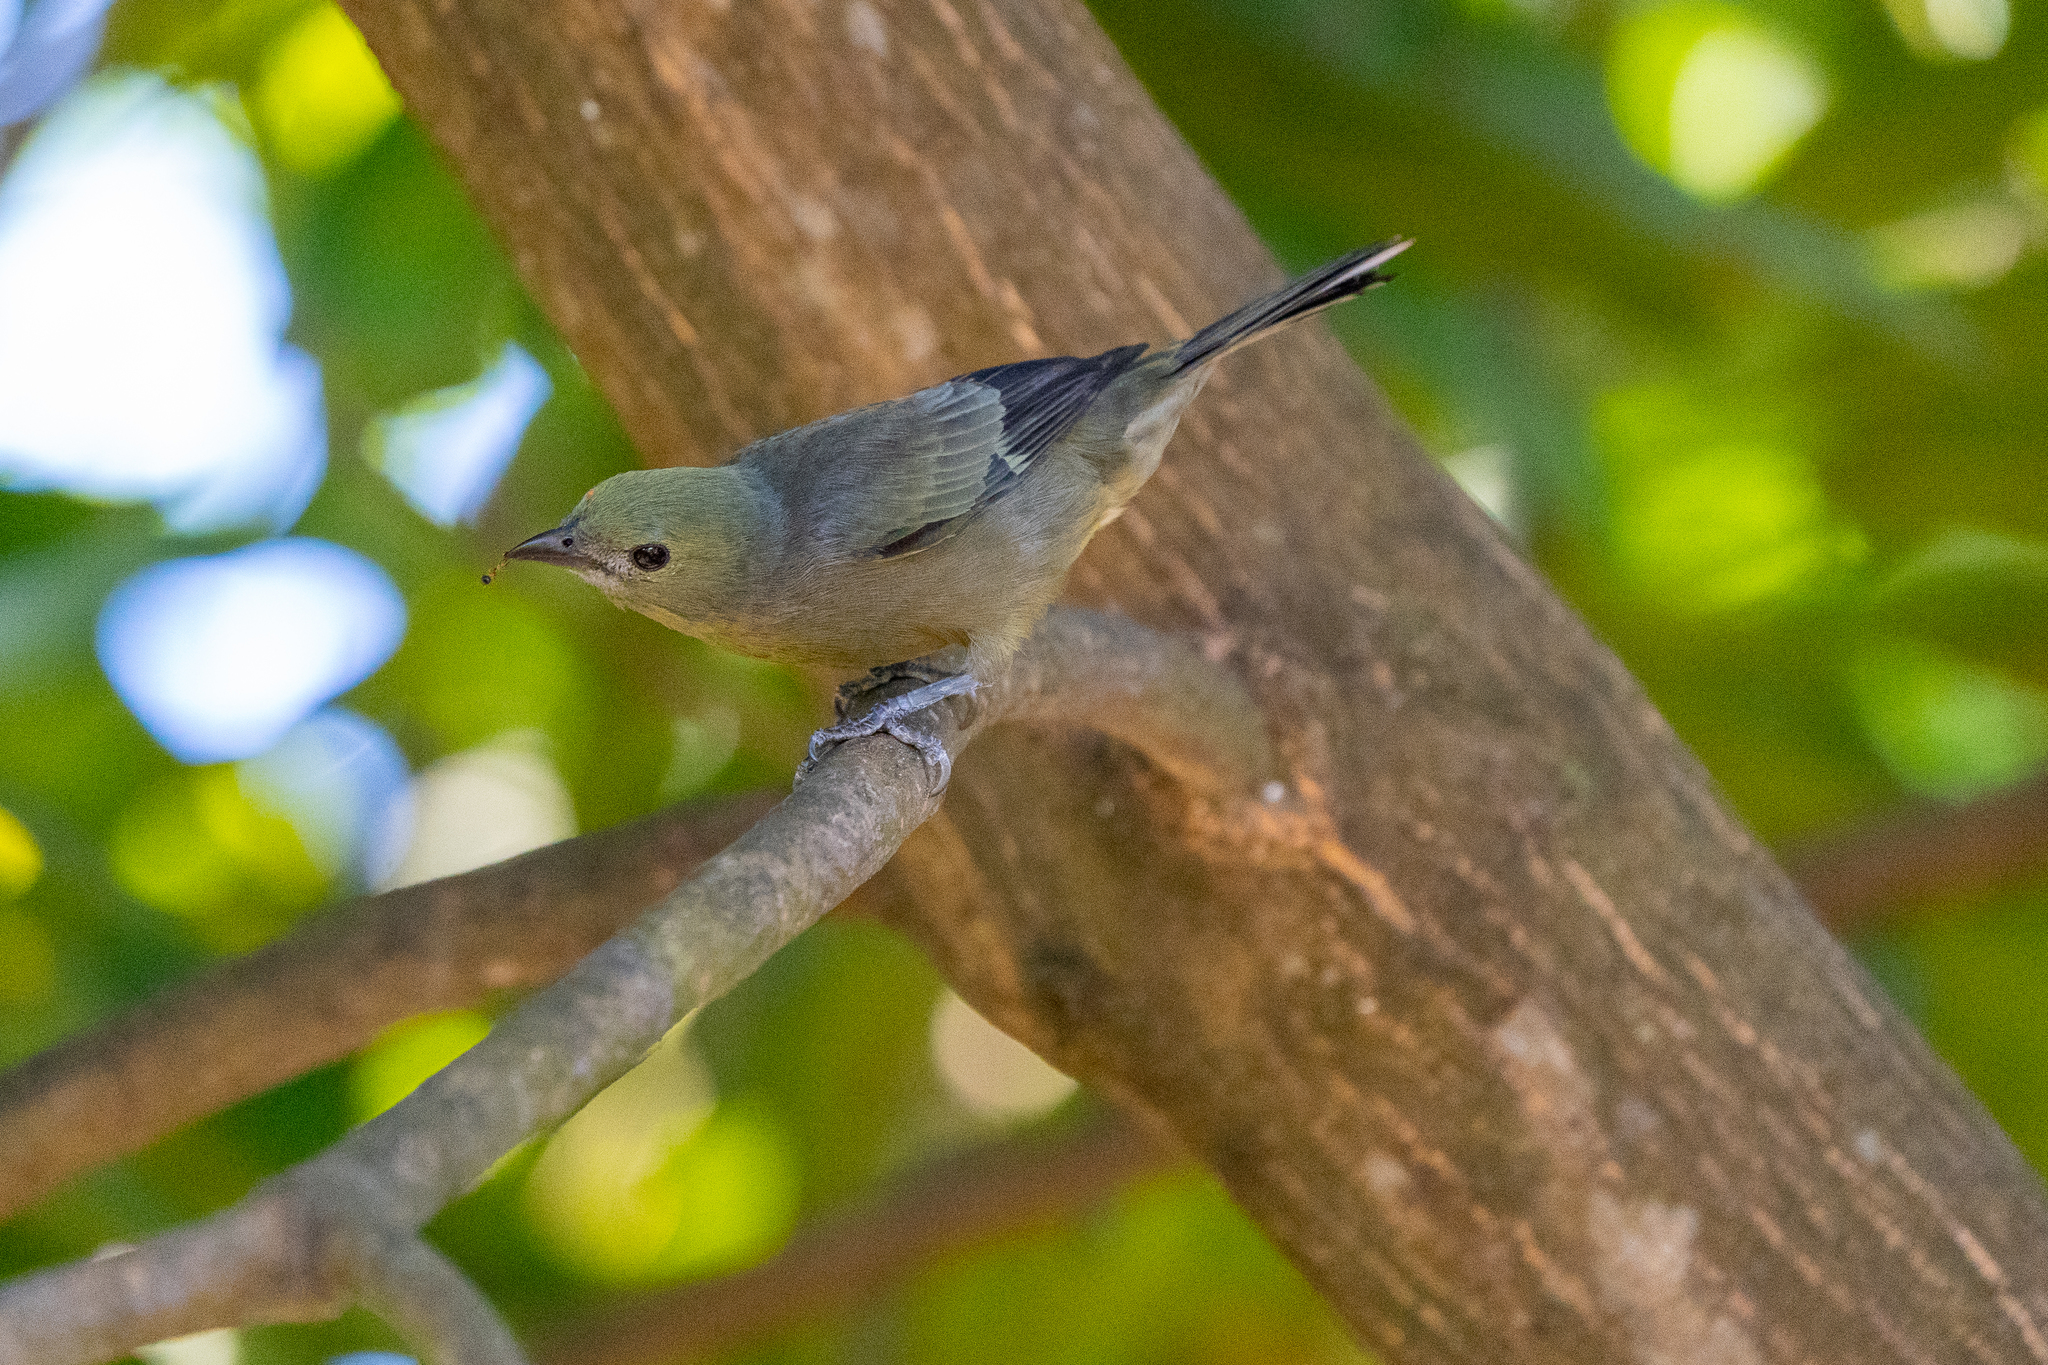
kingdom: Animalia
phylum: Chordata
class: Aves
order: Passeriformes
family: Thraupidae
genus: Thraupis
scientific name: Thraupis palmarum
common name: Palm tanager
